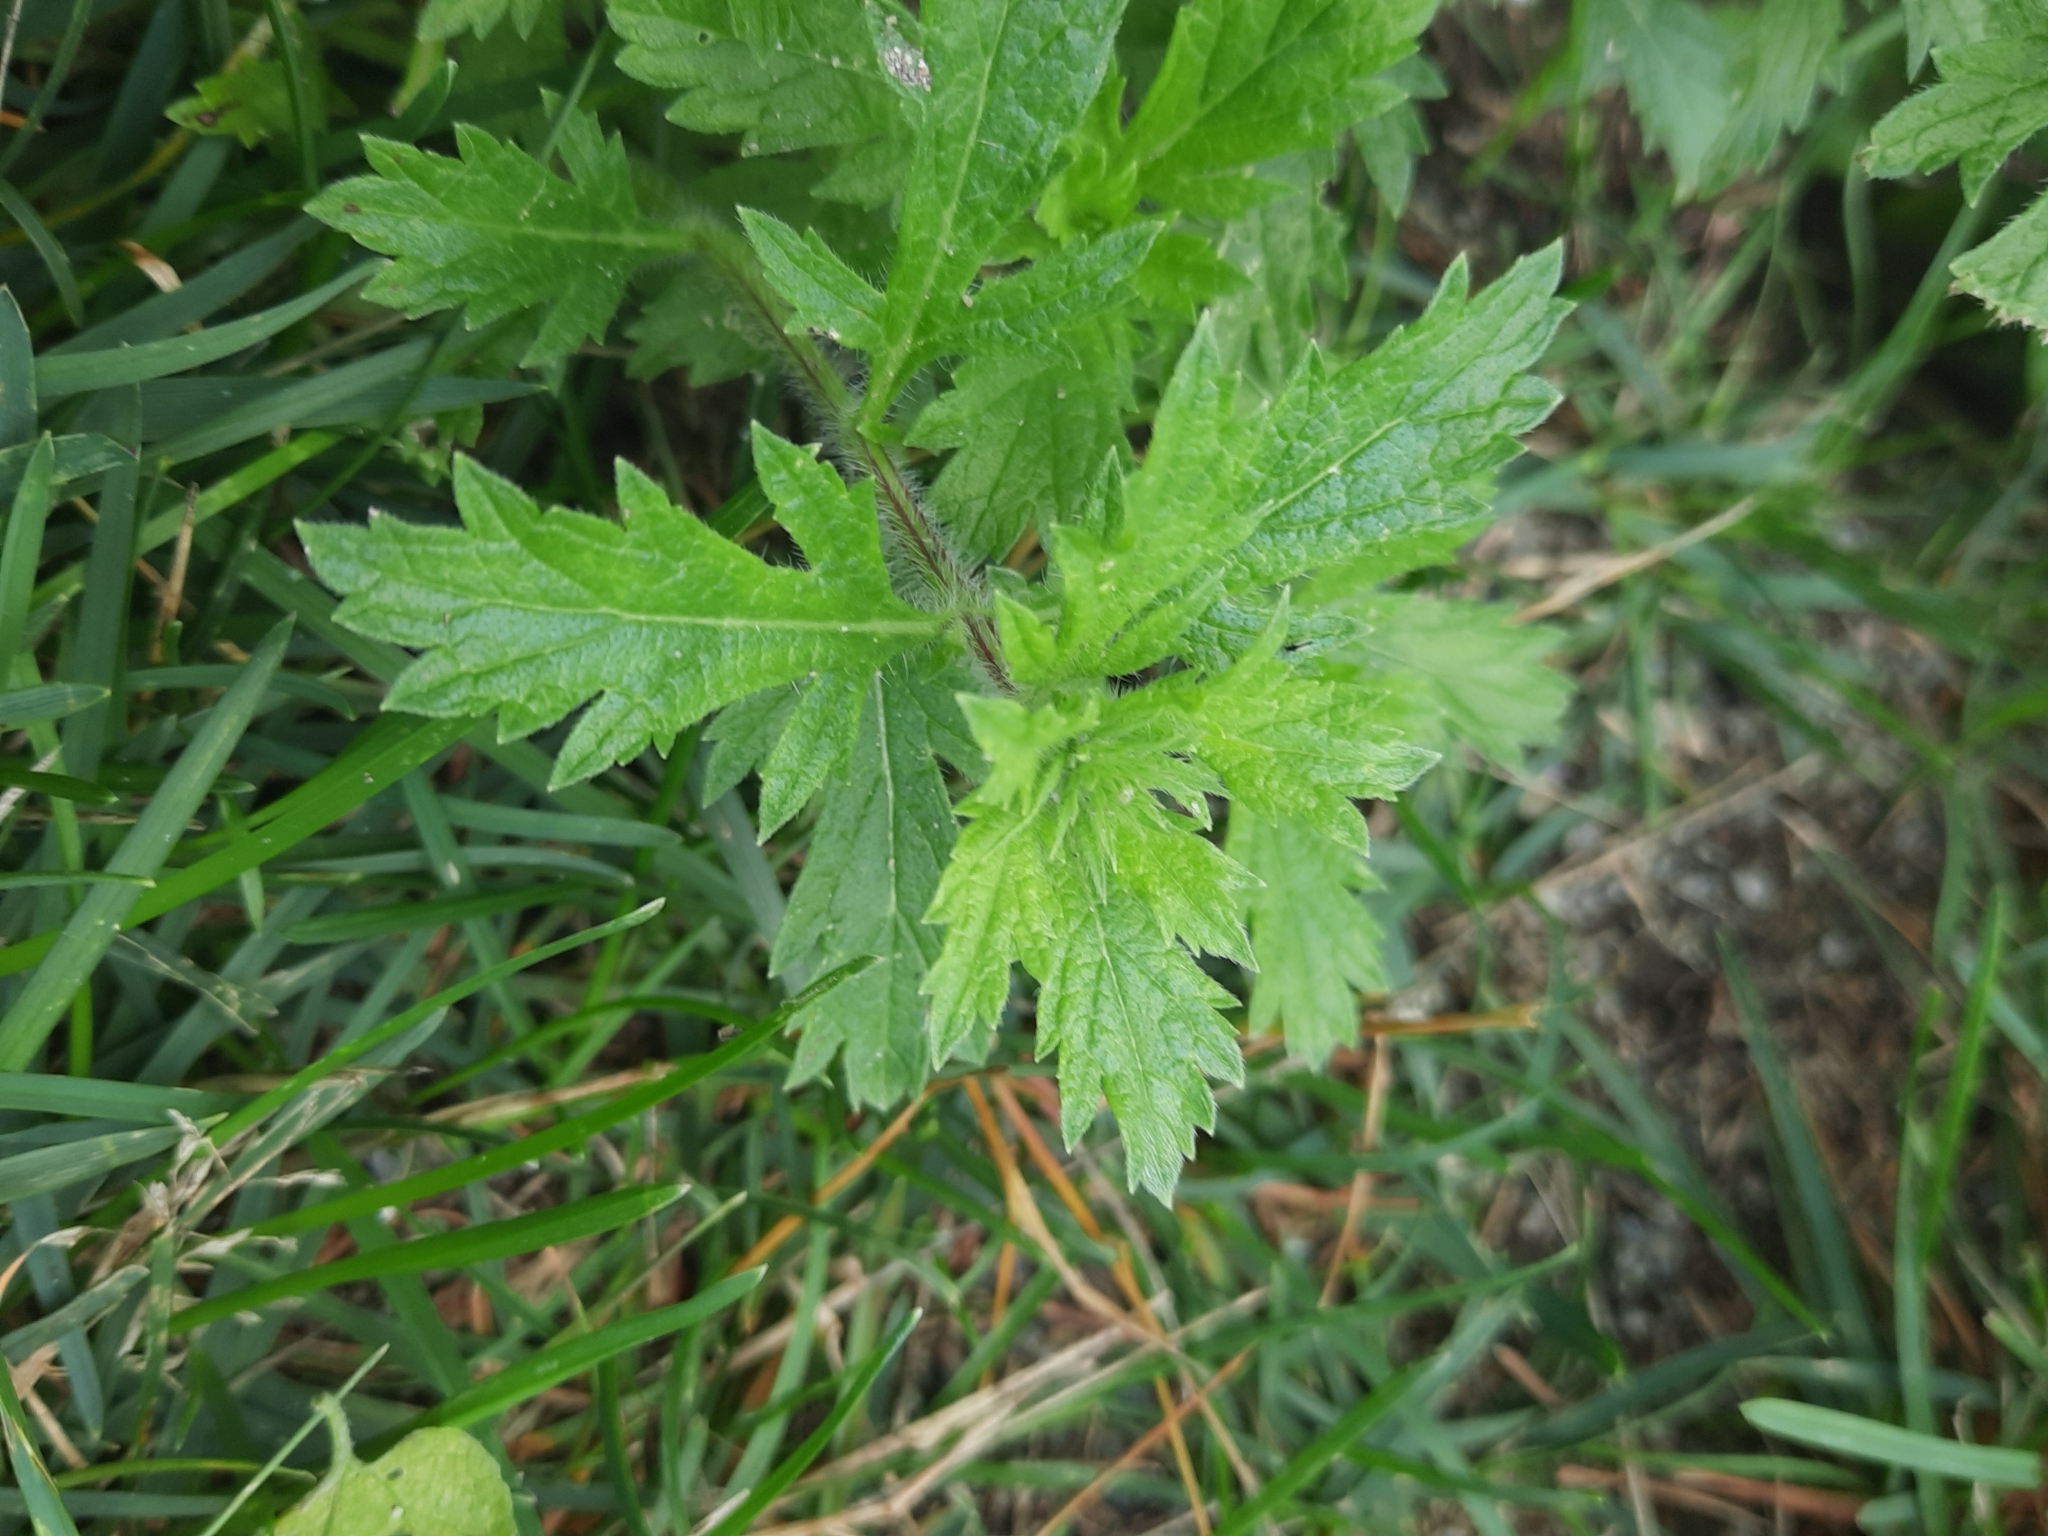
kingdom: Plantae
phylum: Tracheophyta
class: Magnoliopsida
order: Lamiales
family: Verbenaceae
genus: Verbena
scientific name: Verbena bracteata
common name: Bracted vervain
